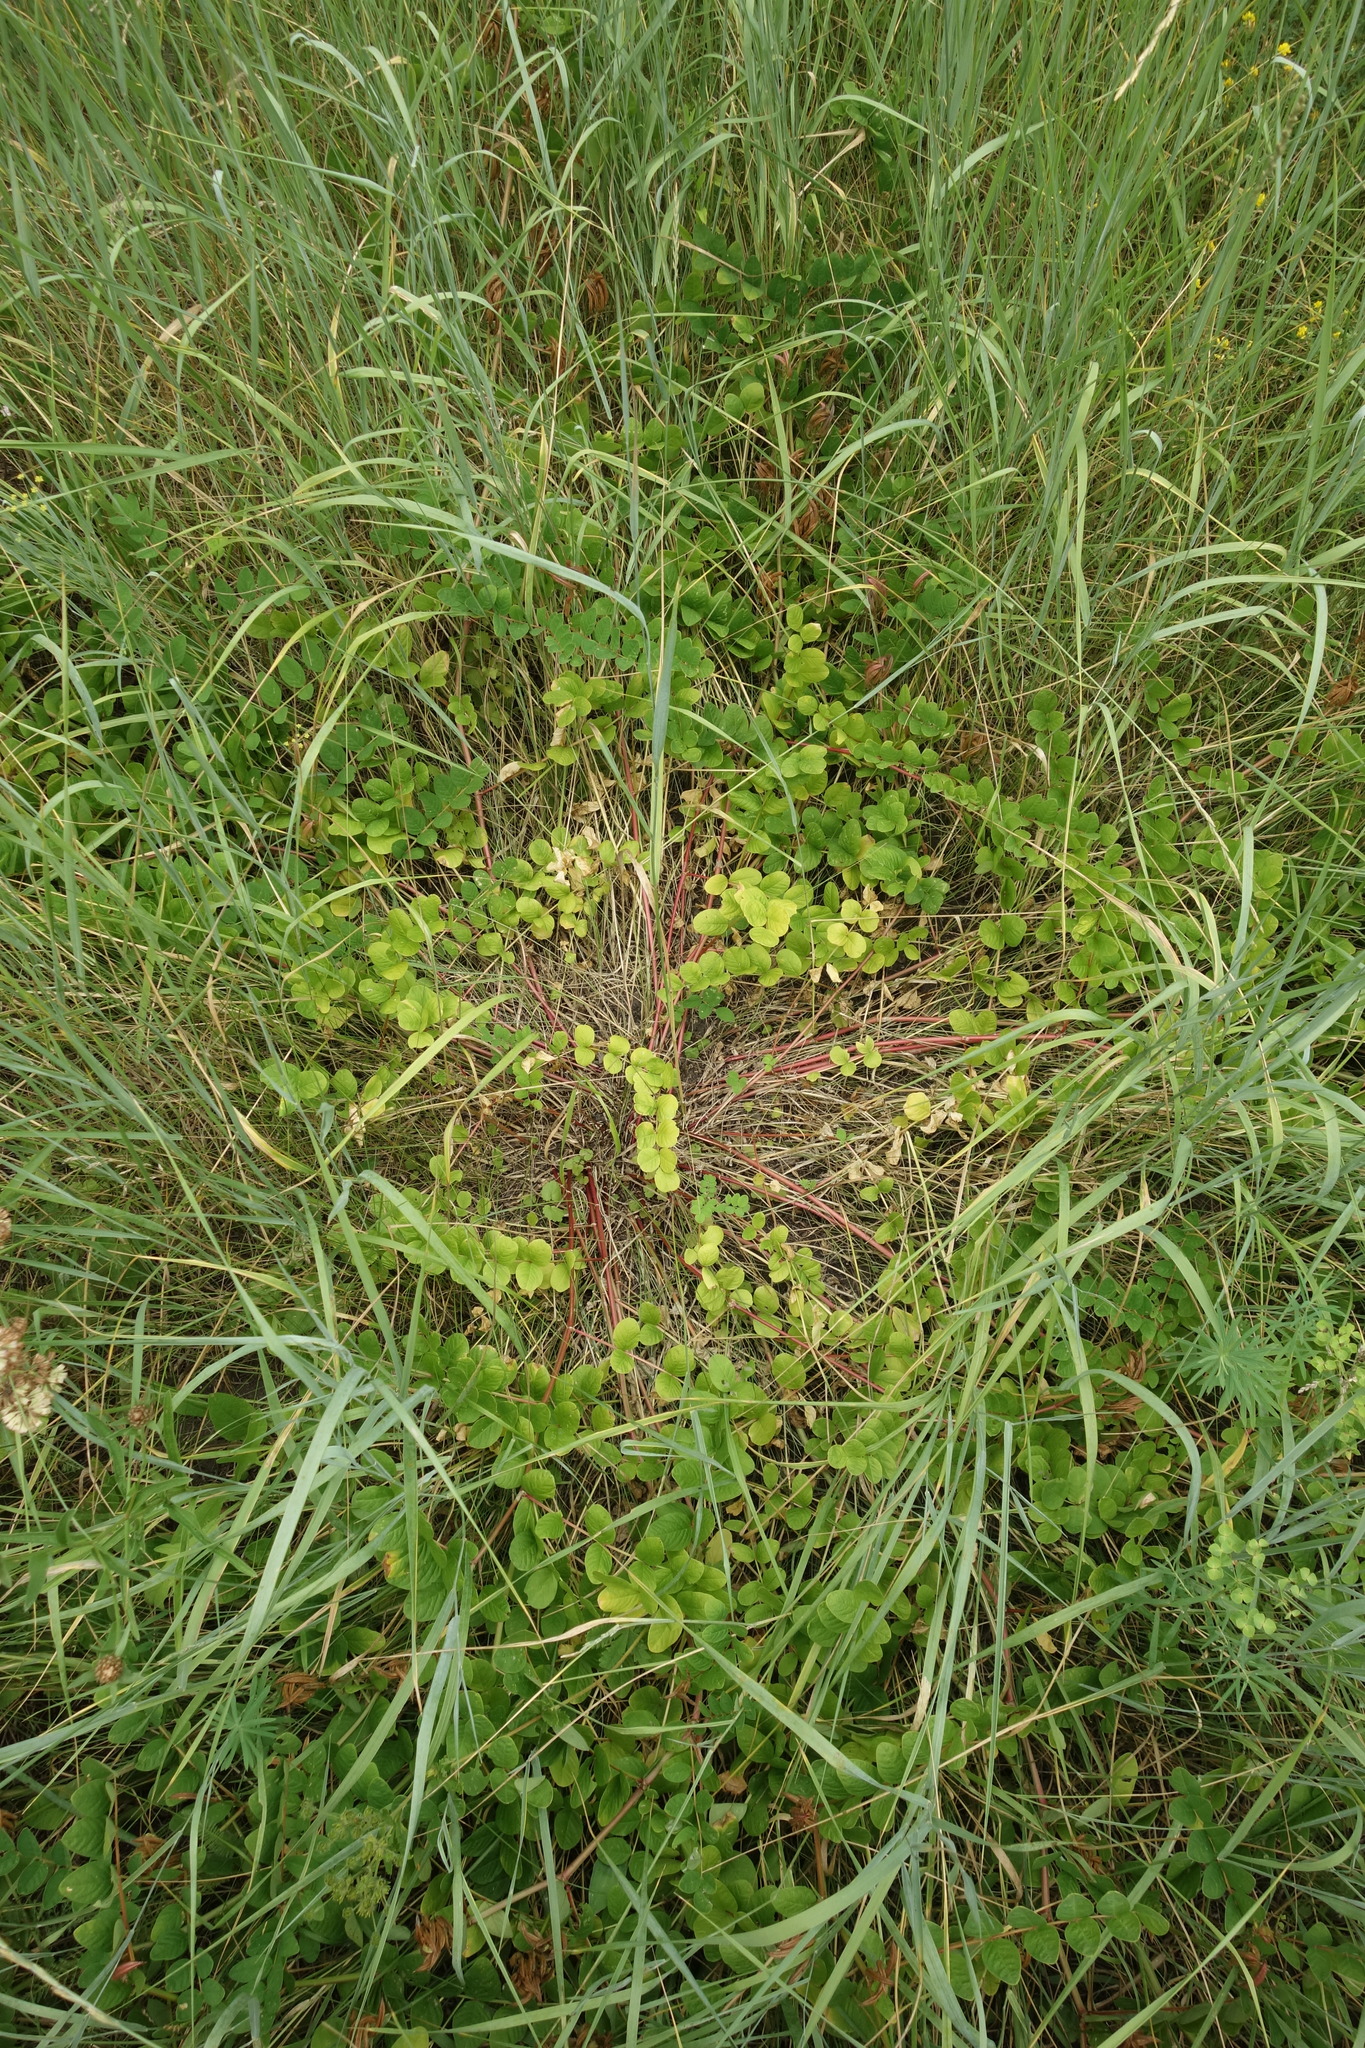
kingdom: Plantae
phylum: Tracheophyta
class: Magnoliopsida
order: Fabales
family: Fabaceae
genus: Astragalus
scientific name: Astragalus glycyphyllos
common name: Wild liquorice
